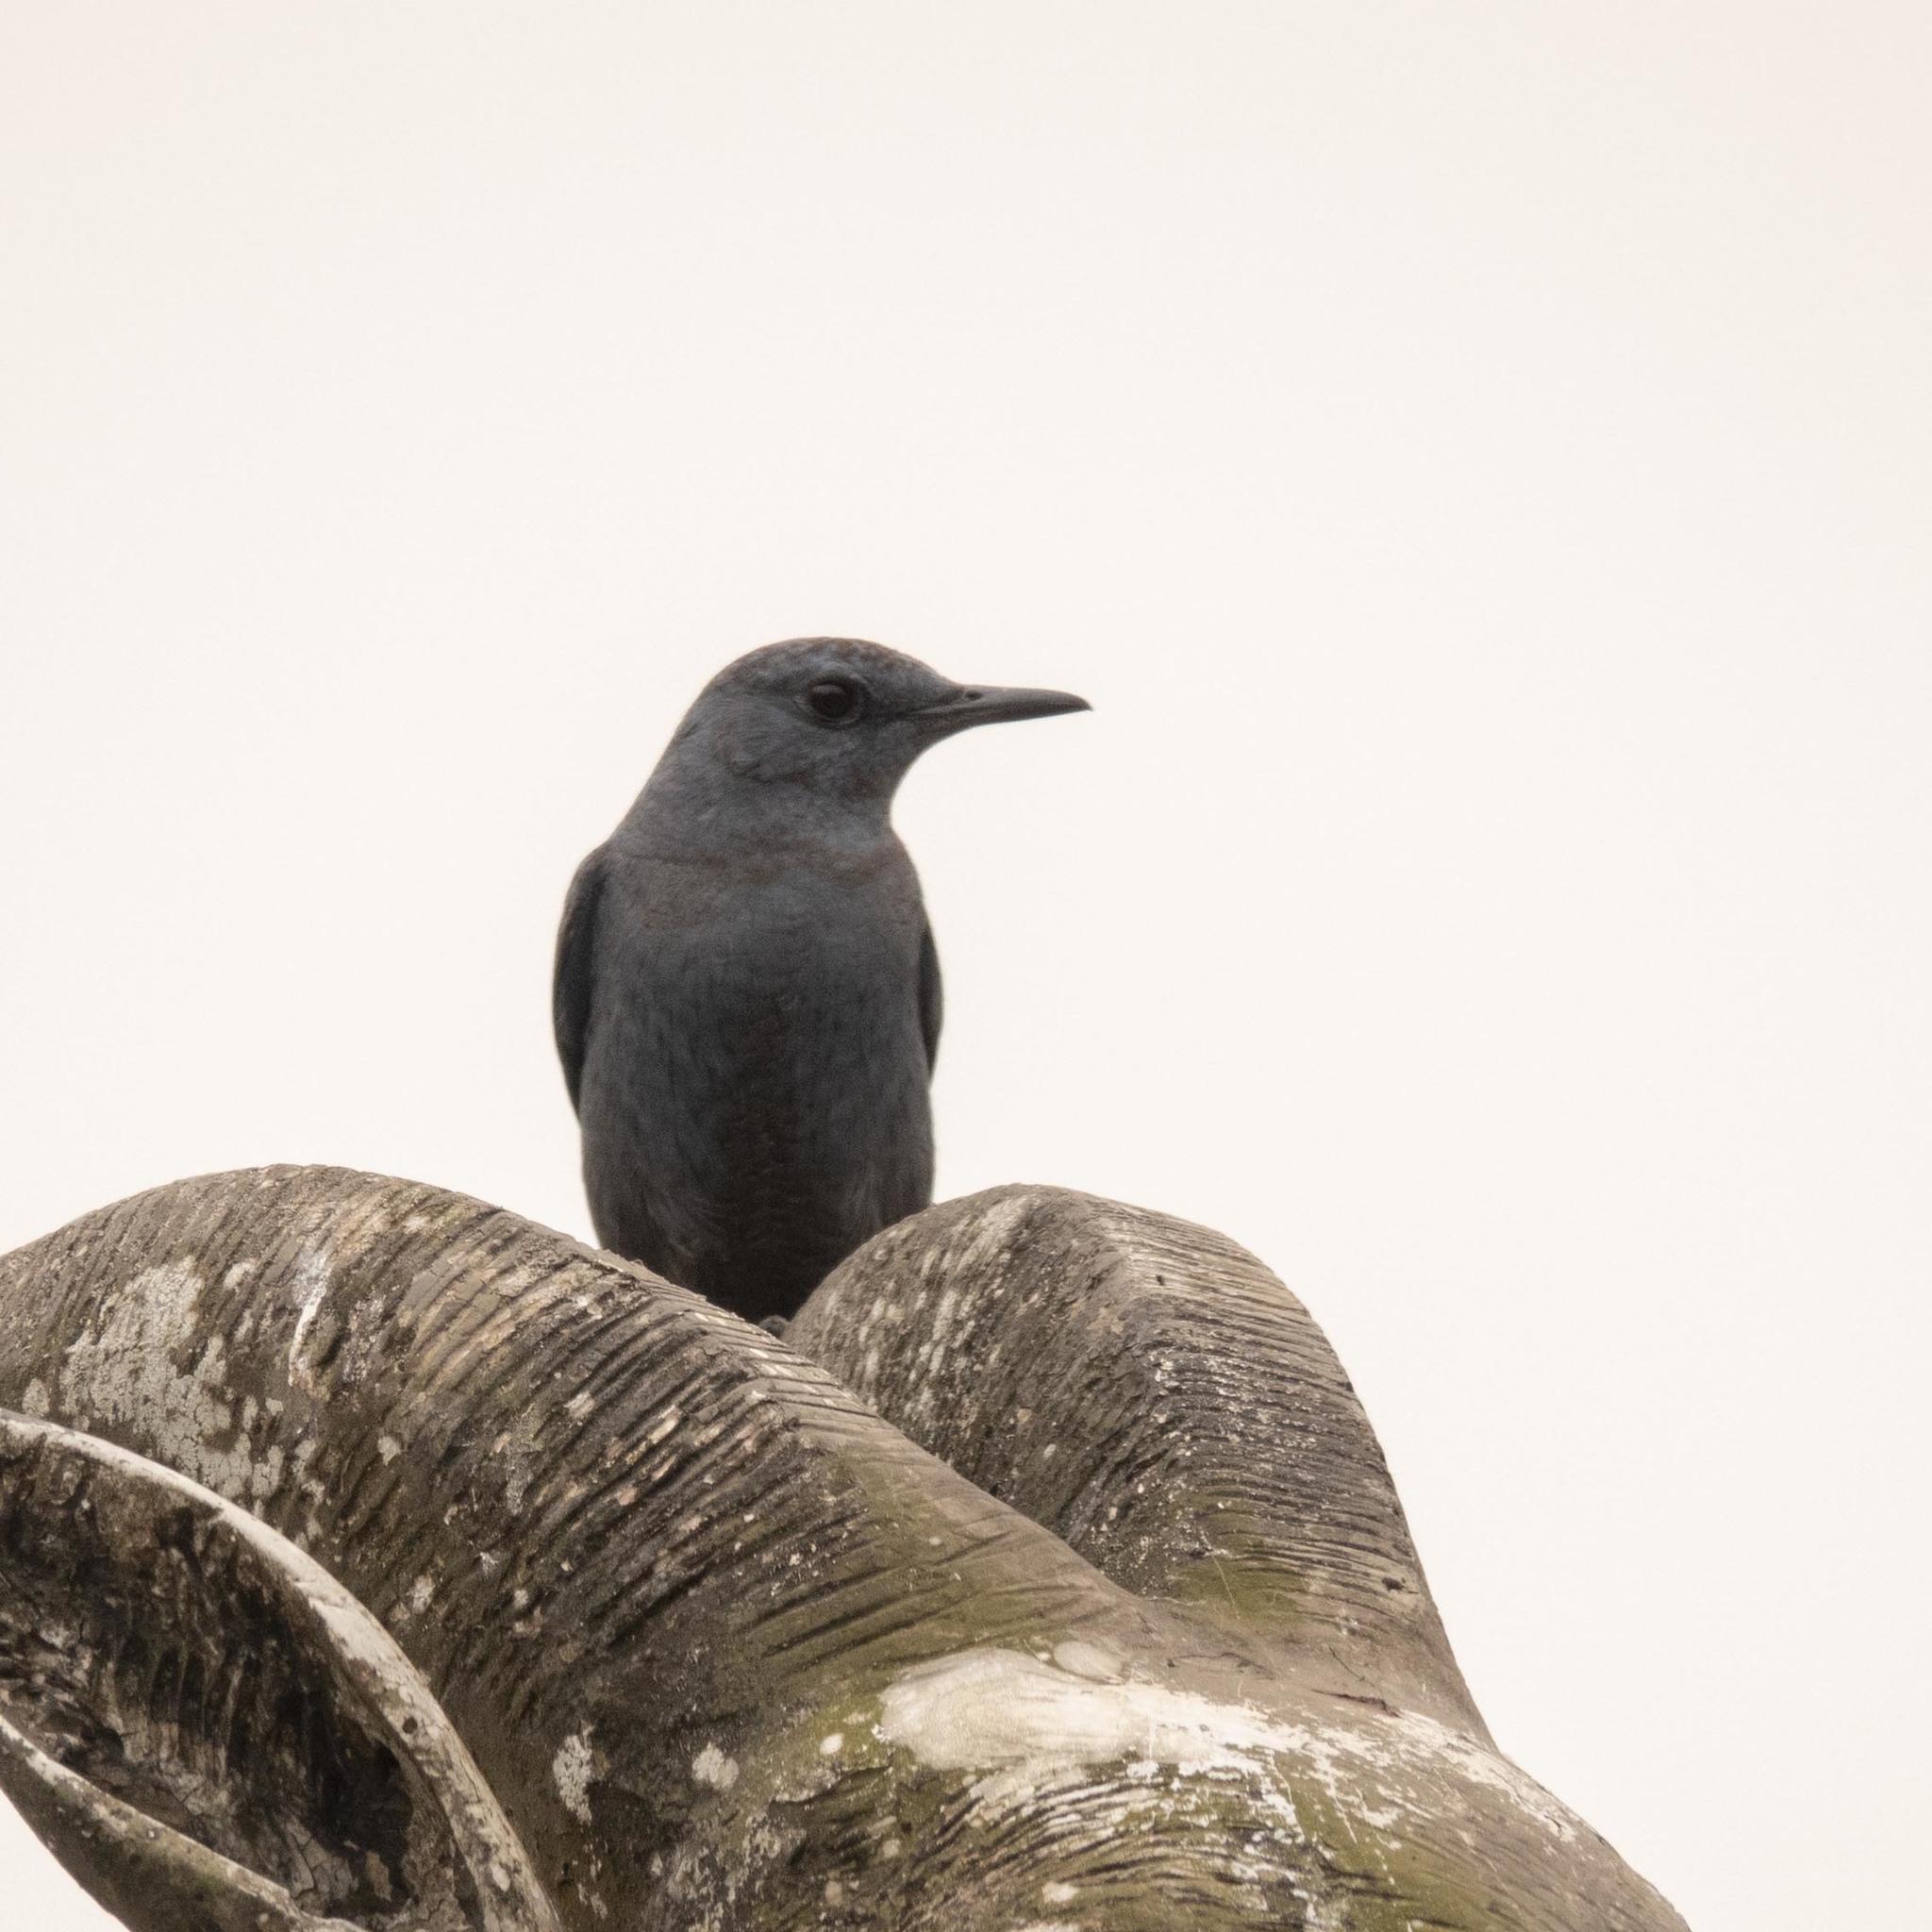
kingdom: Animalia
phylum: Chordata
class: Aves
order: Passeriformes
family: Muscicapidae
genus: Monticola
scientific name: Monticola solitarius
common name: Blue rock thrush
